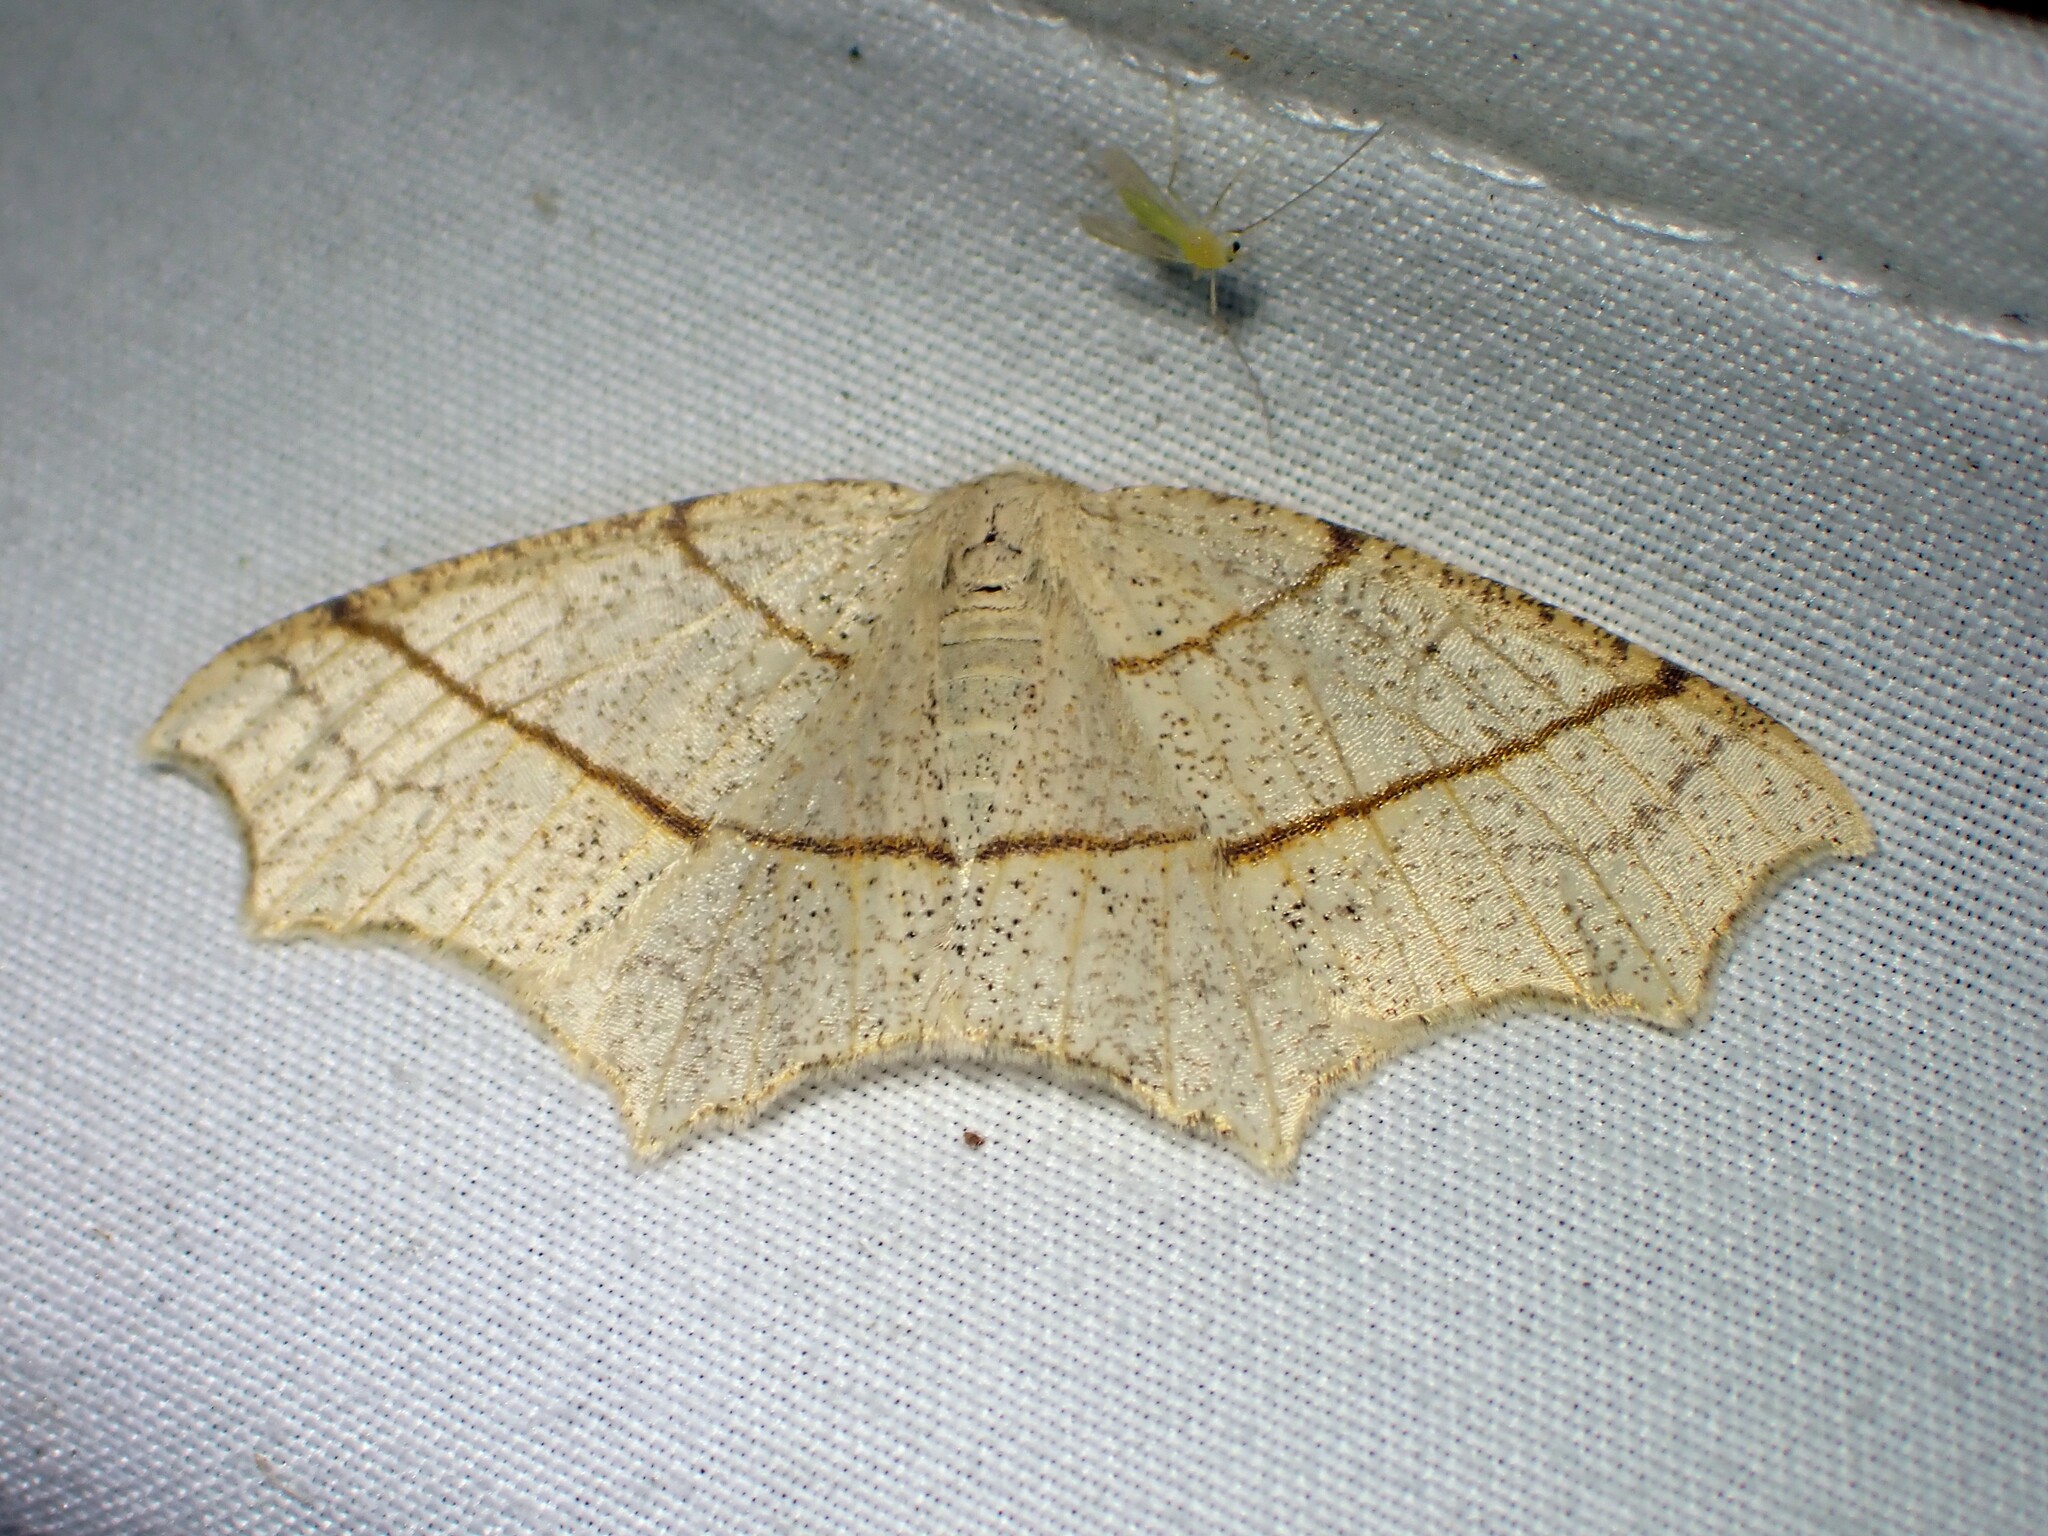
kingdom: Animalia
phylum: Arthropoda
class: Insecta
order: Lepidoptera
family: Geometridae
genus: Besma
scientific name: Besma quercivoraria
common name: Oak besma
